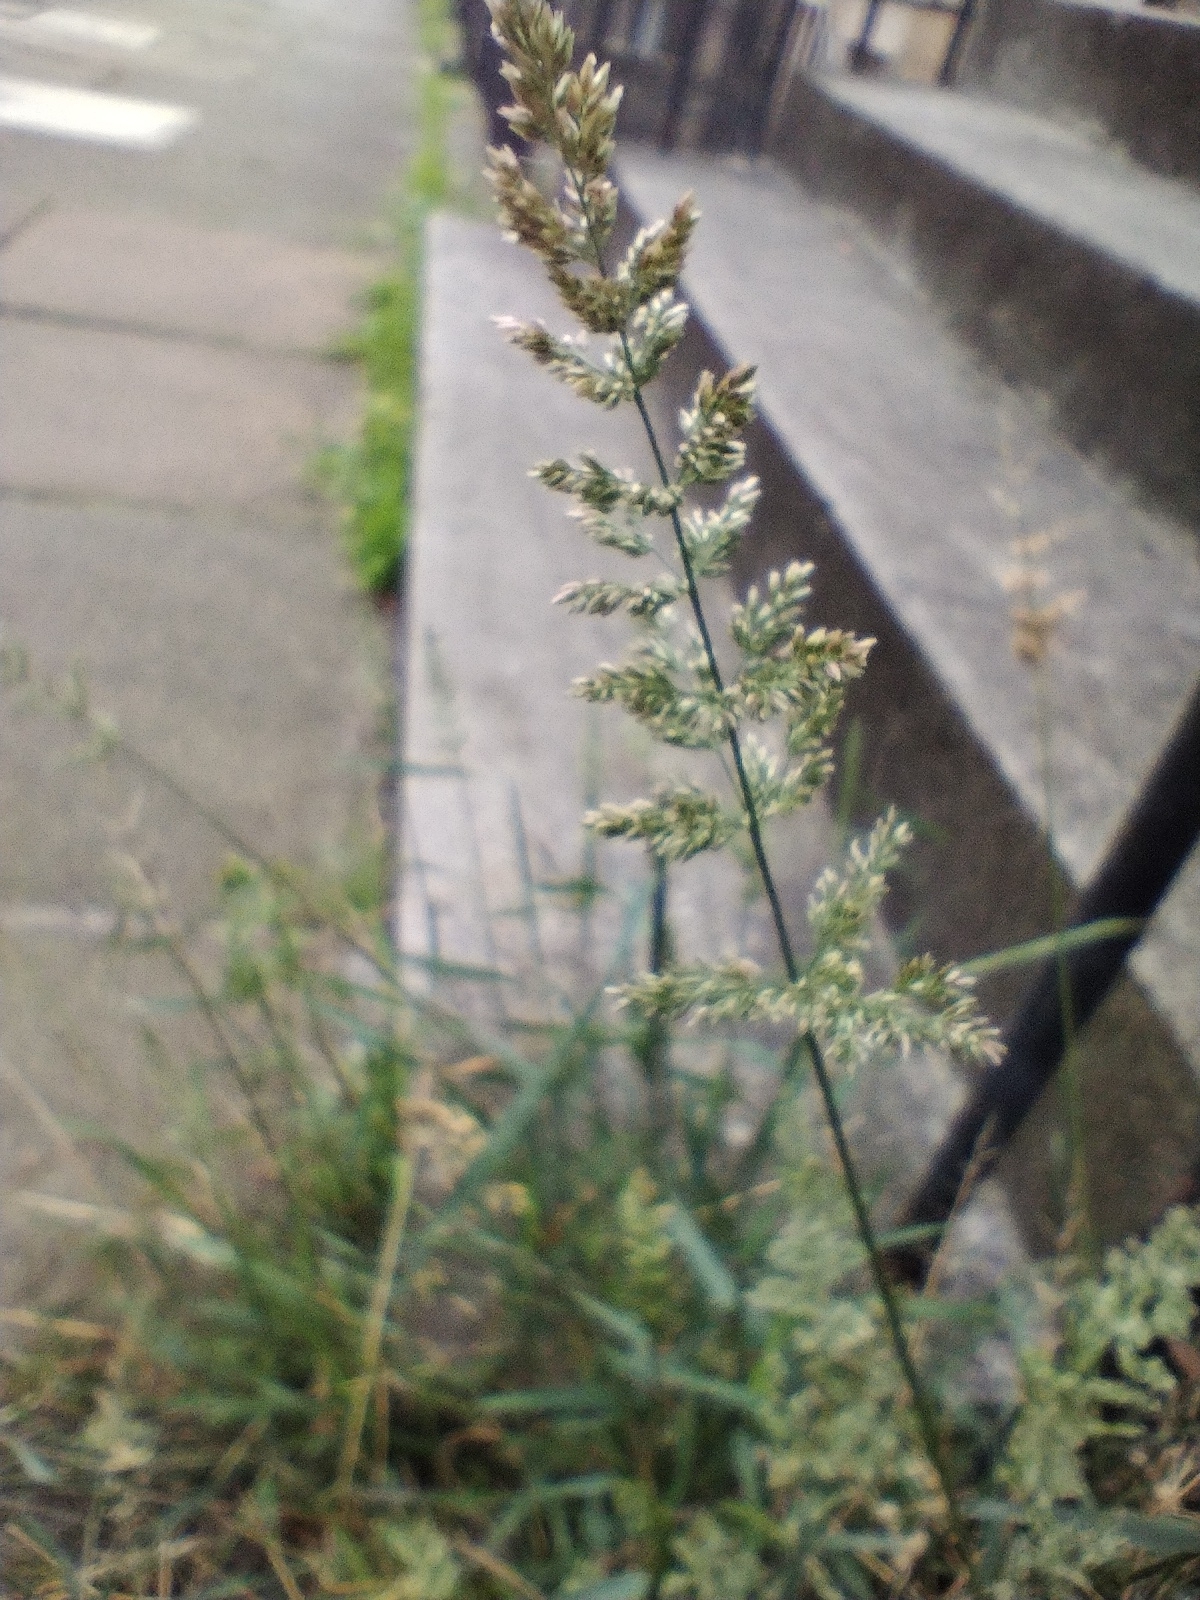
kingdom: Plantae
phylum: Tracheophyta
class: Liliopsida
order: Poales
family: Poaceae
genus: Polypogon
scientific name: Polypogon viridis
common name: Water bent
